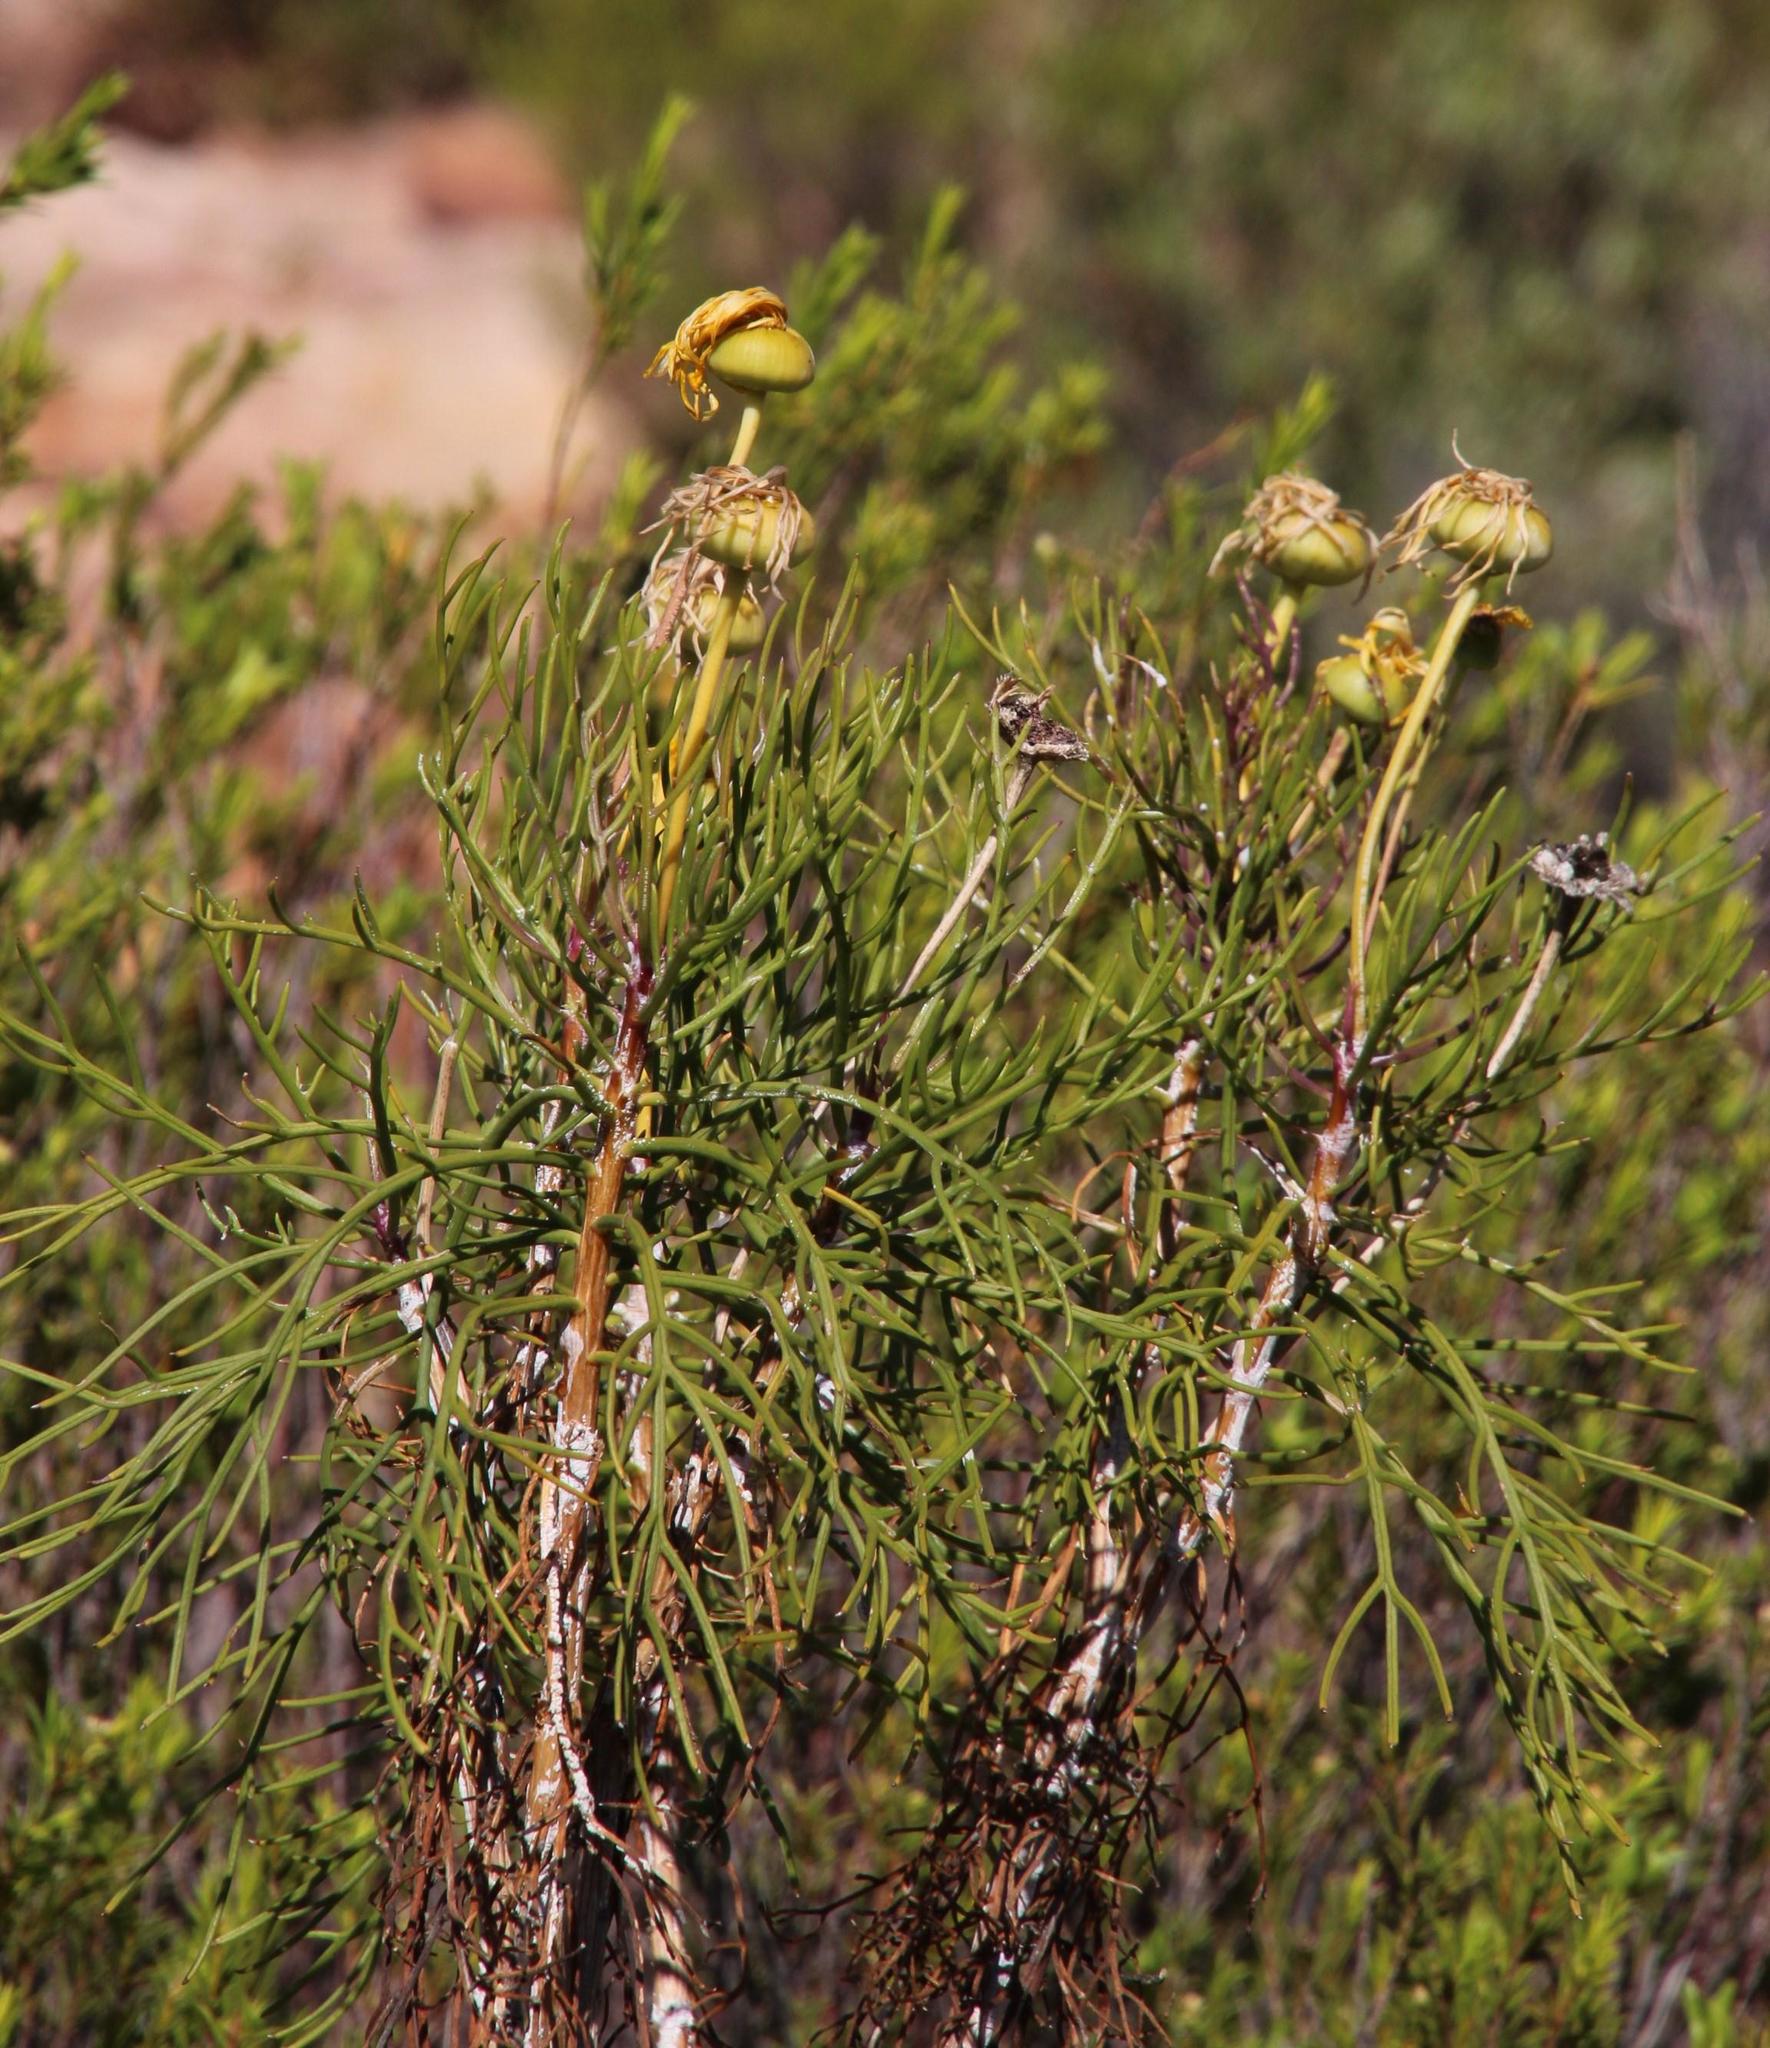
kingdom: Plantae
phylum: Tracheophyta
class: Magnoliopsida
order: Asterales
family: Asteraceae
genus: Euryops
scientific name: Euryops speciosissimus
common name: Clanwilliam daisy
